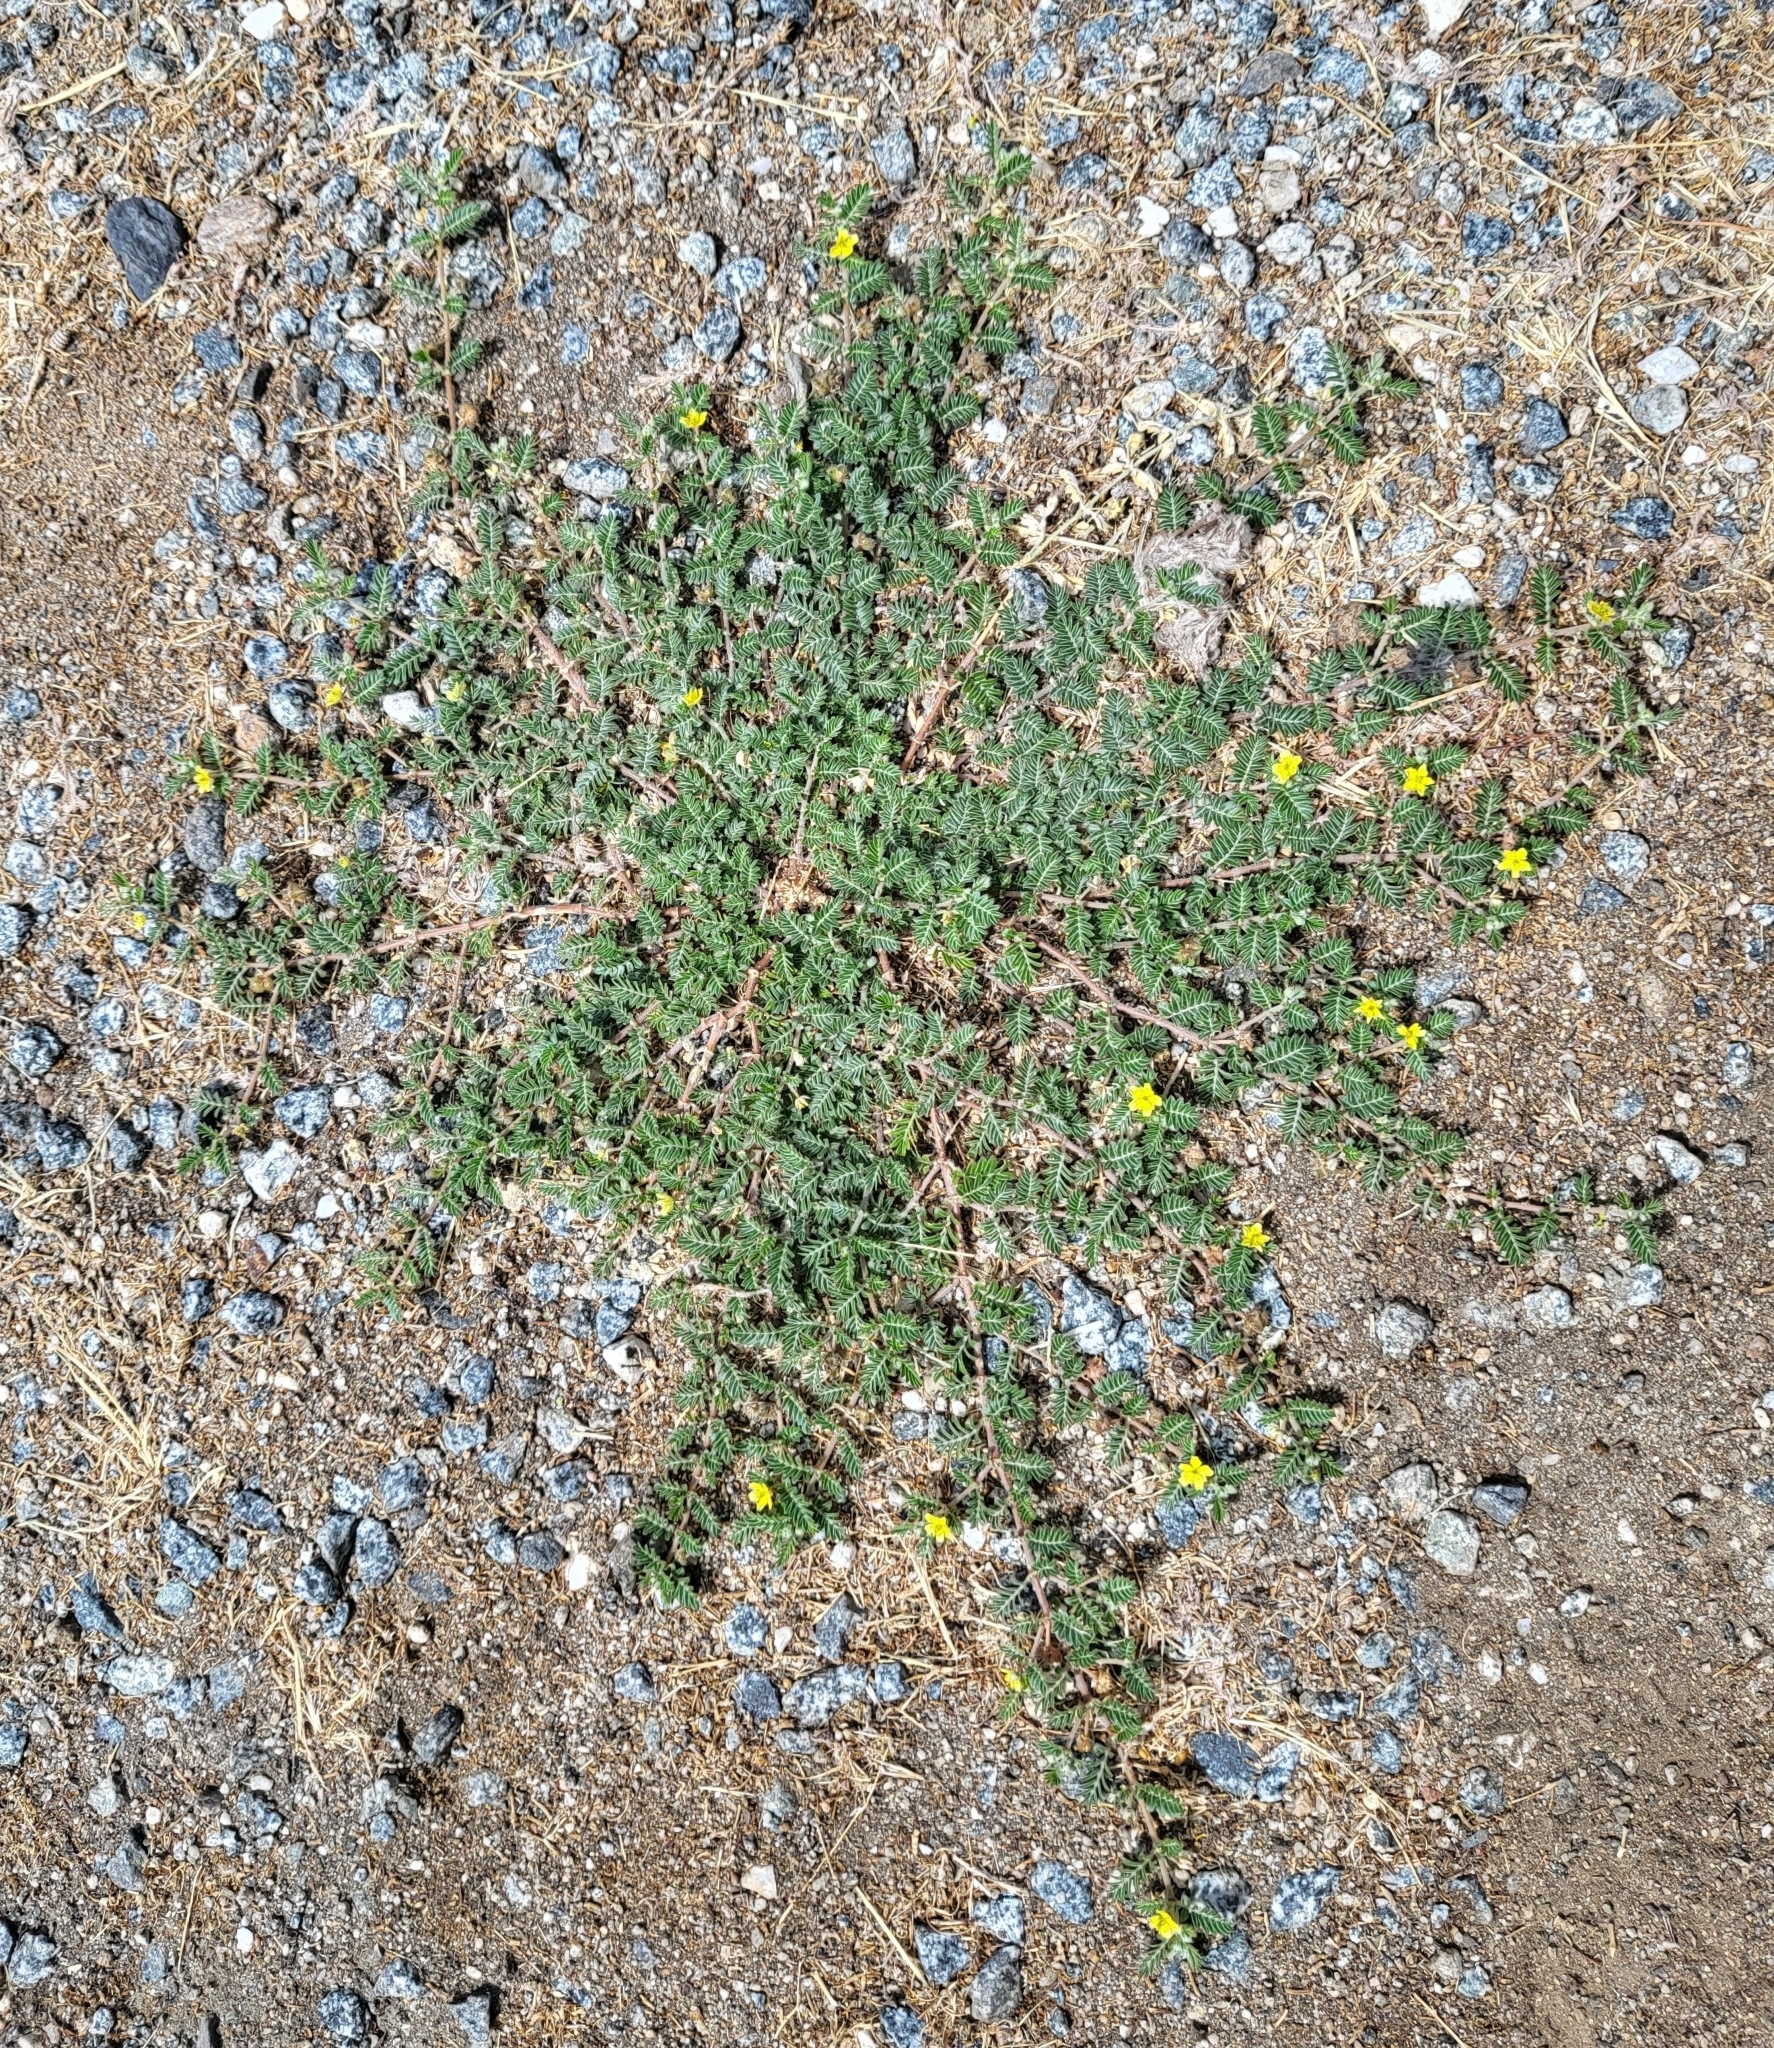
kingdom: Plantae
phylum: Tracheophyta
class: Magnoliopsida
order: Zygophyllales
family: Zygophyllaceae
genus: Tribulus
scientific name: Tribulus terrestris
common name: Puncturevine
